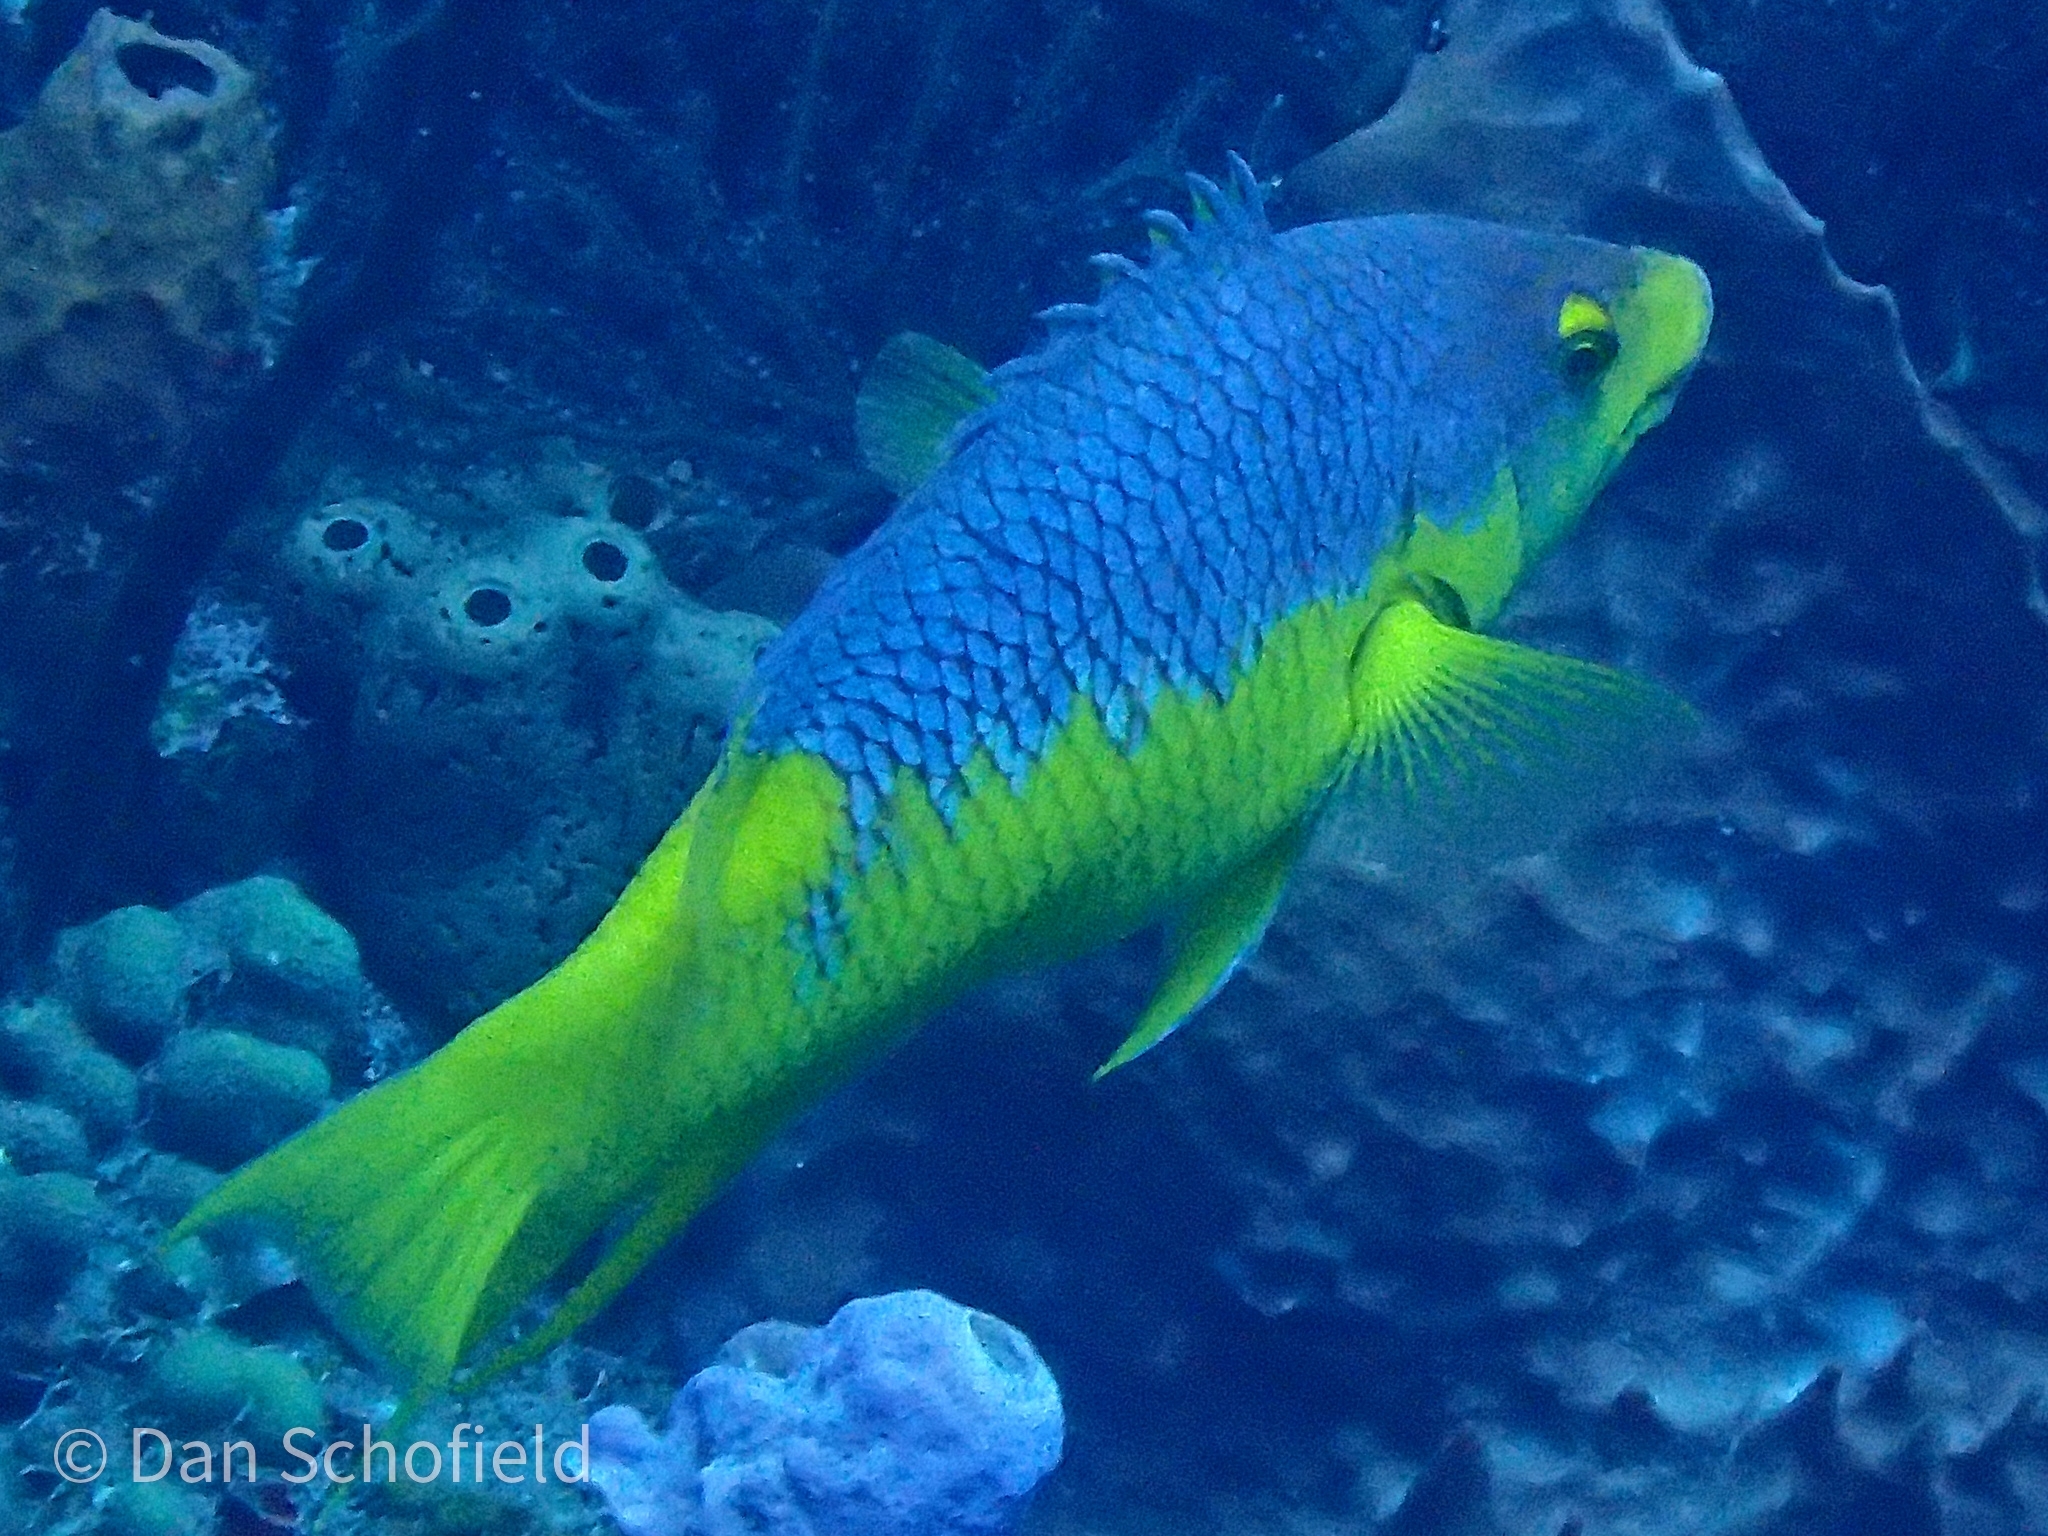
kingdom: Animalia
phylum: Chordata
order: Perciformes
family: Labridae
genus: Bodianus
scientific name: Bodianus rufus
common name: Spanish hogfish
